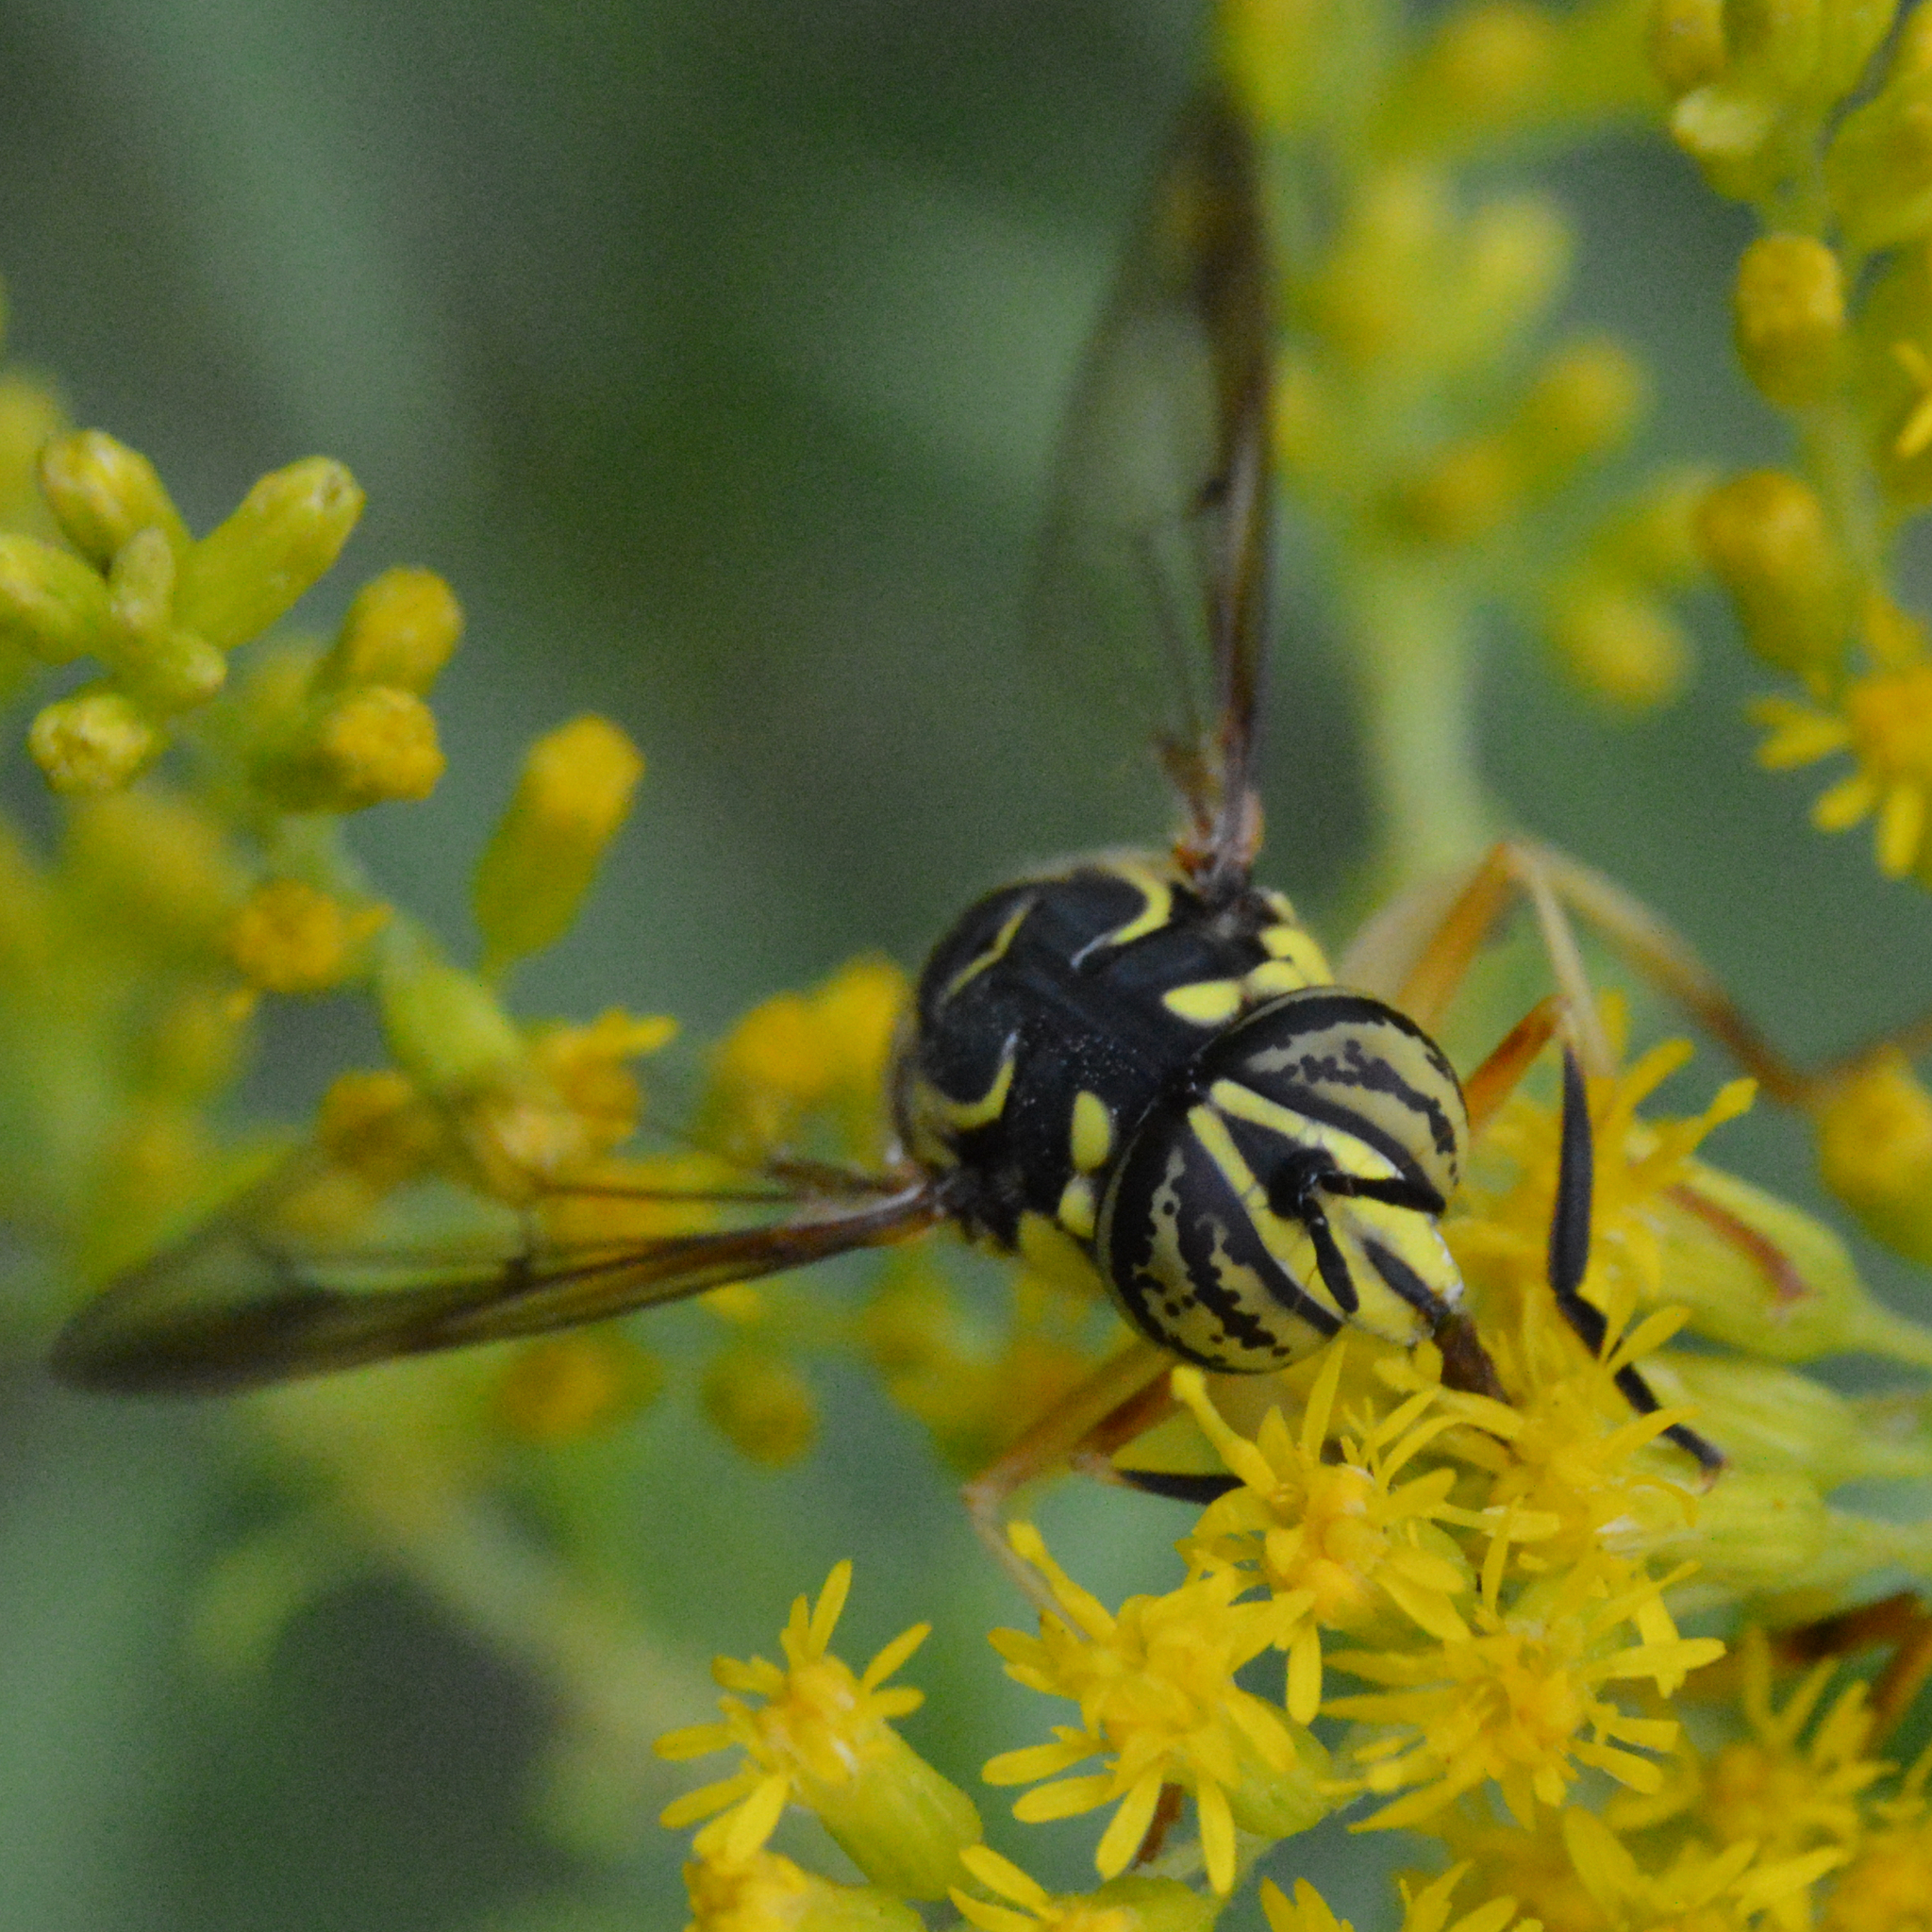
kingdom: Animalia
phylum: Arthropoda
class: Insecta
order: Diptera
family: Syrphidae
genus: Spilomyia
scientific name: Spilomyia longicornis
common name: Eastern hornet fly
